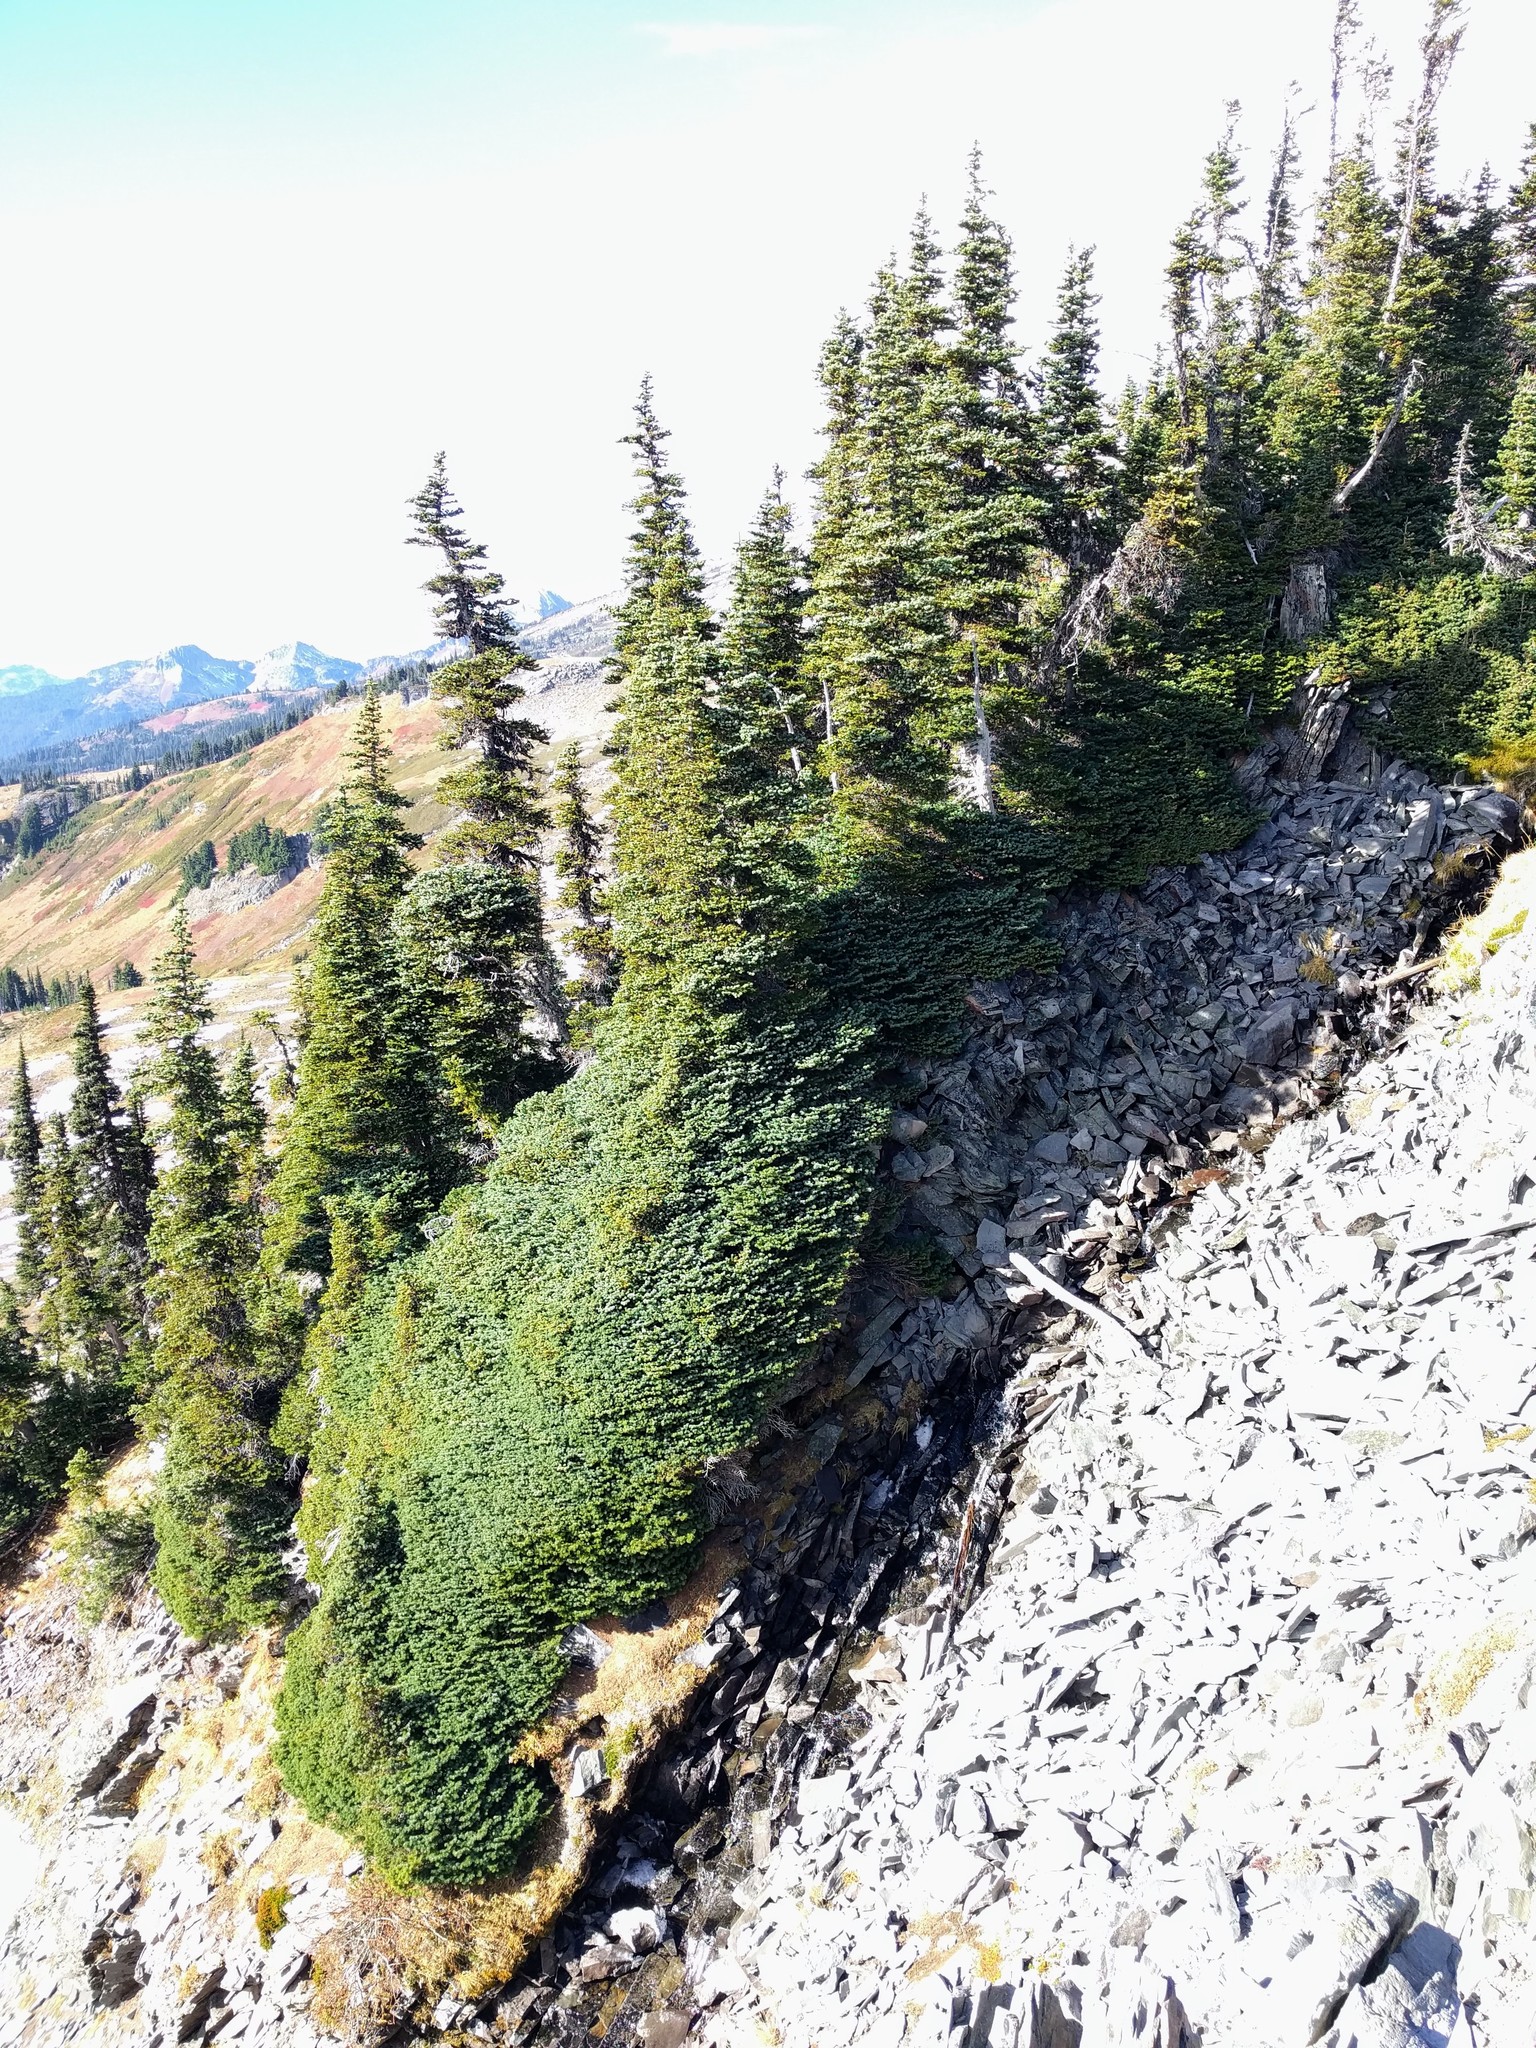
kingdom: Plantae
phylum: Tracheophyta
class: Pinopsida
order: Pinales
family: Pinaceae
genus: Abies
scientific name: Abies lasiocarpa
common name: Subalpine fir
